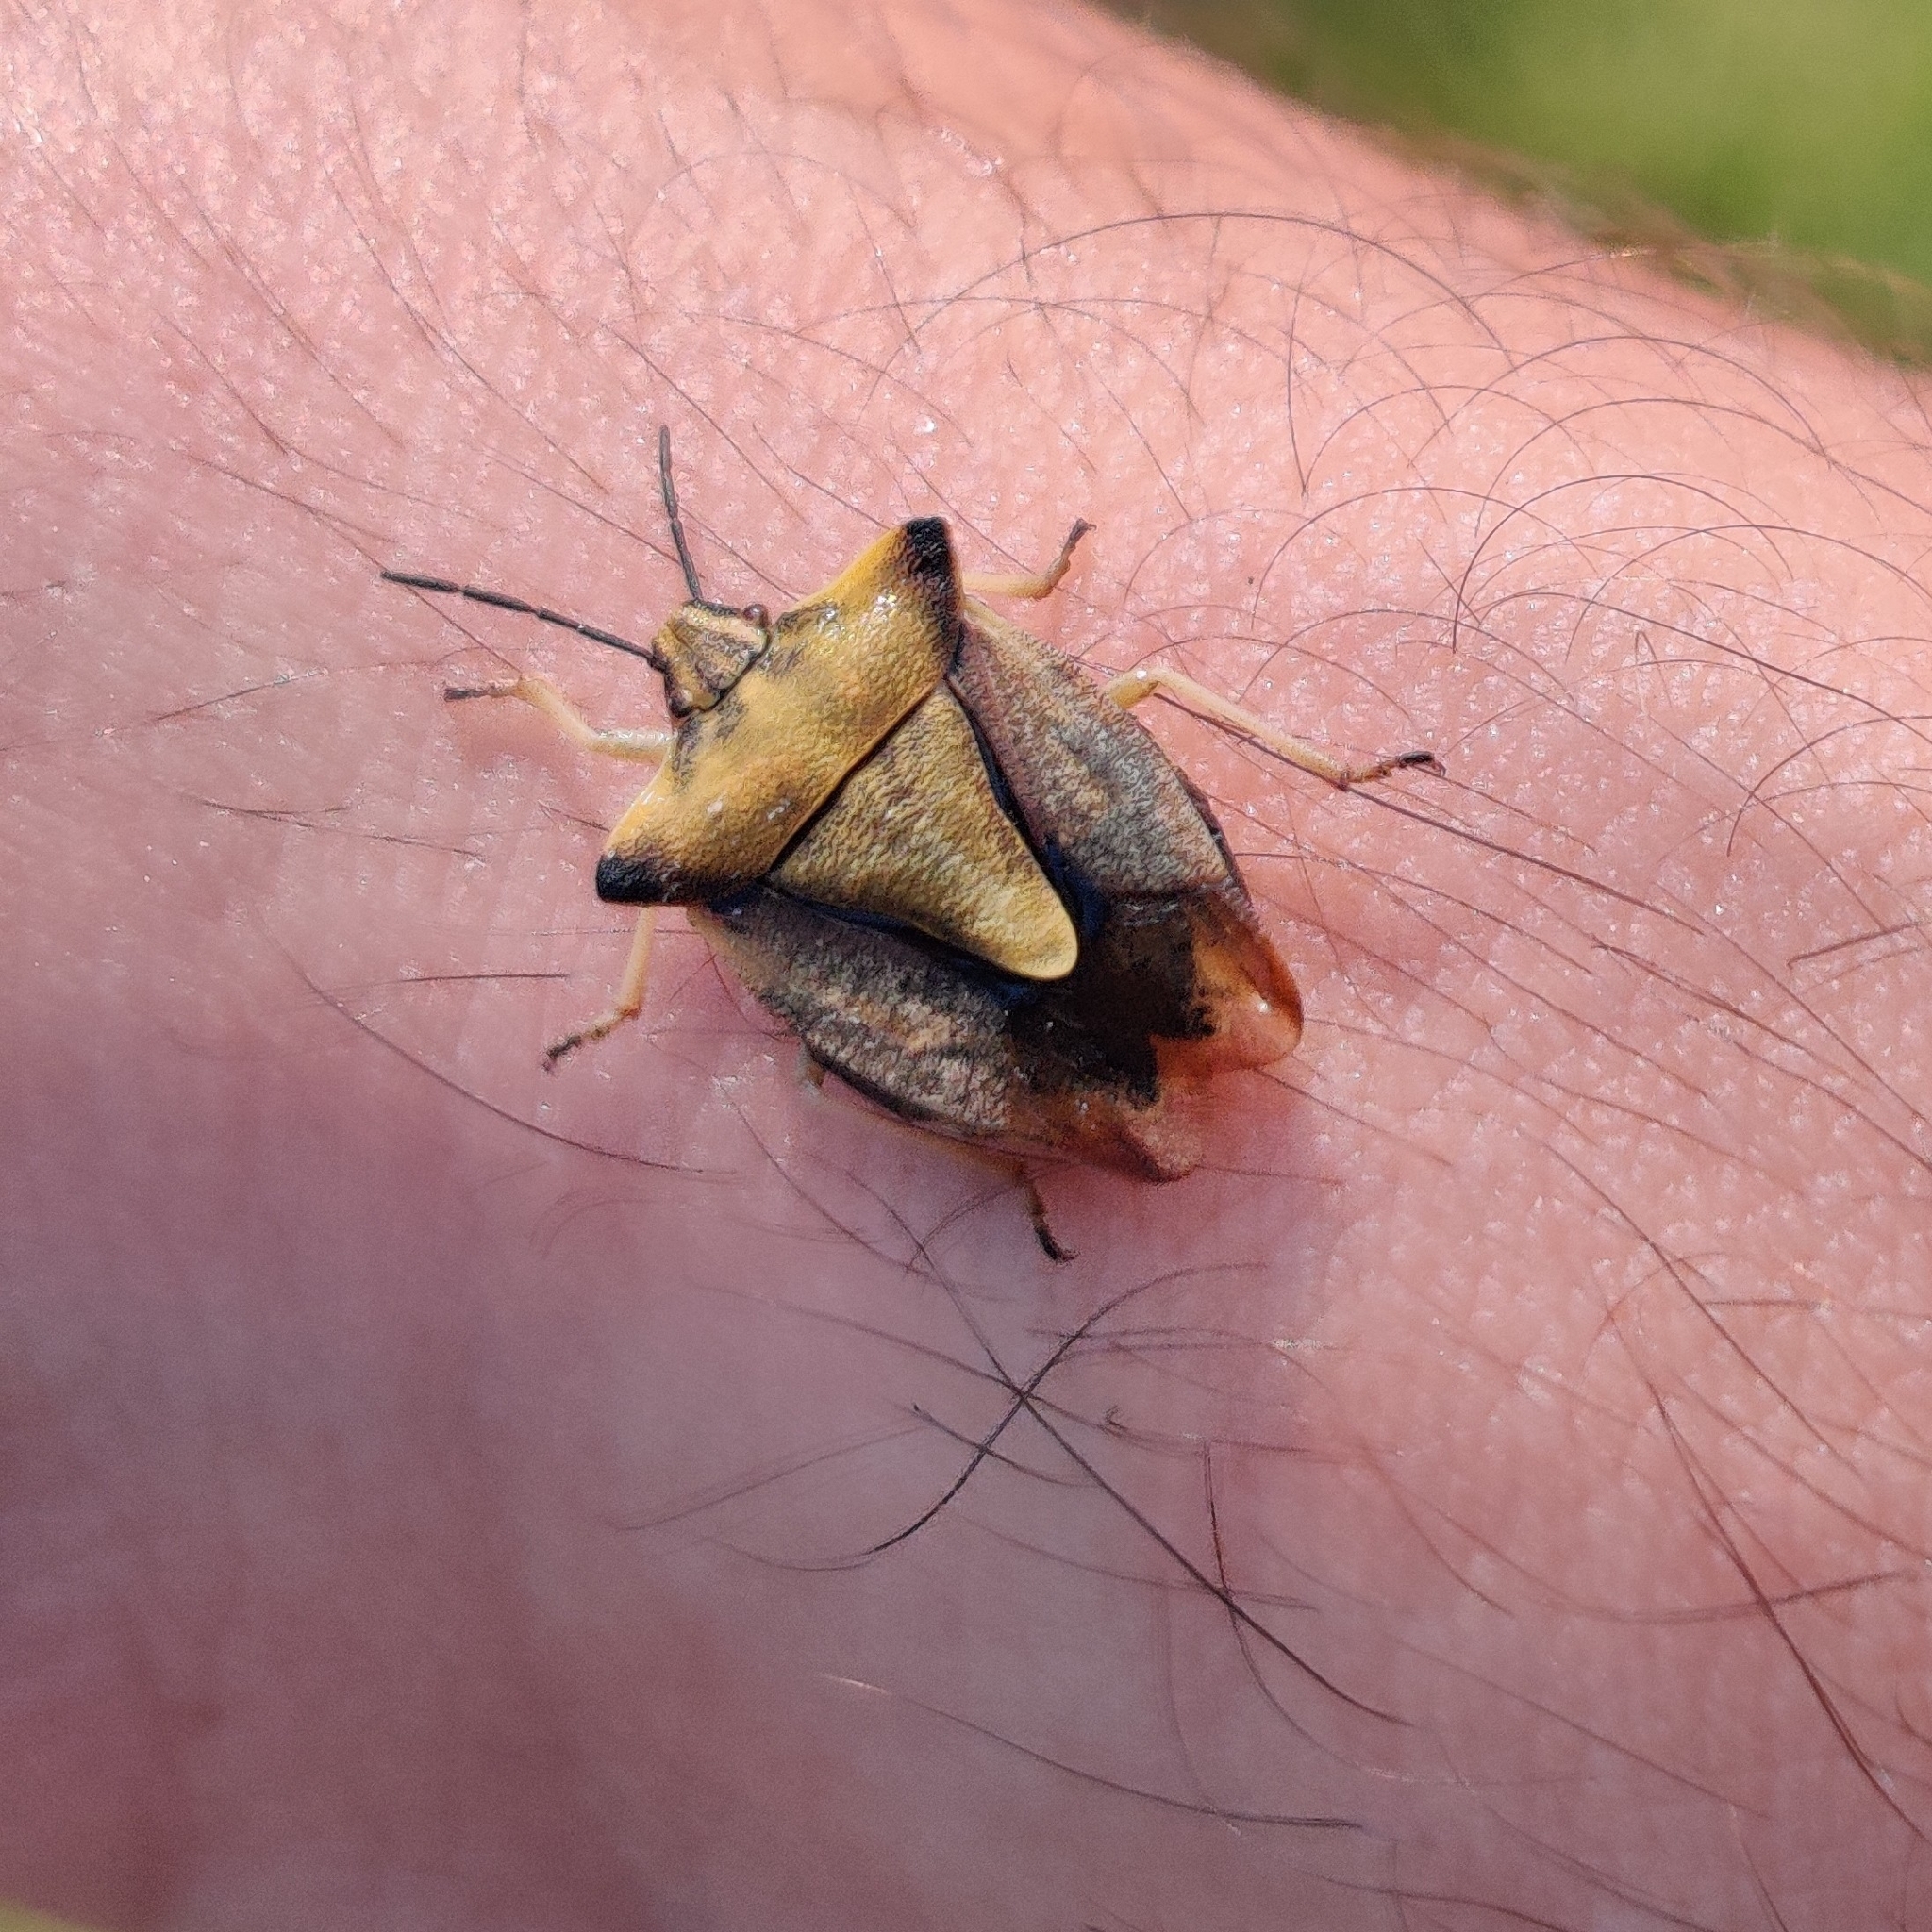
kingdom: Animalia
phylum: Arthropoda
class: Insecta
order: Hemiptera
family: Pentatomidae
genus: Carpocoris
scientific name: Carpocoris fuscispinus
